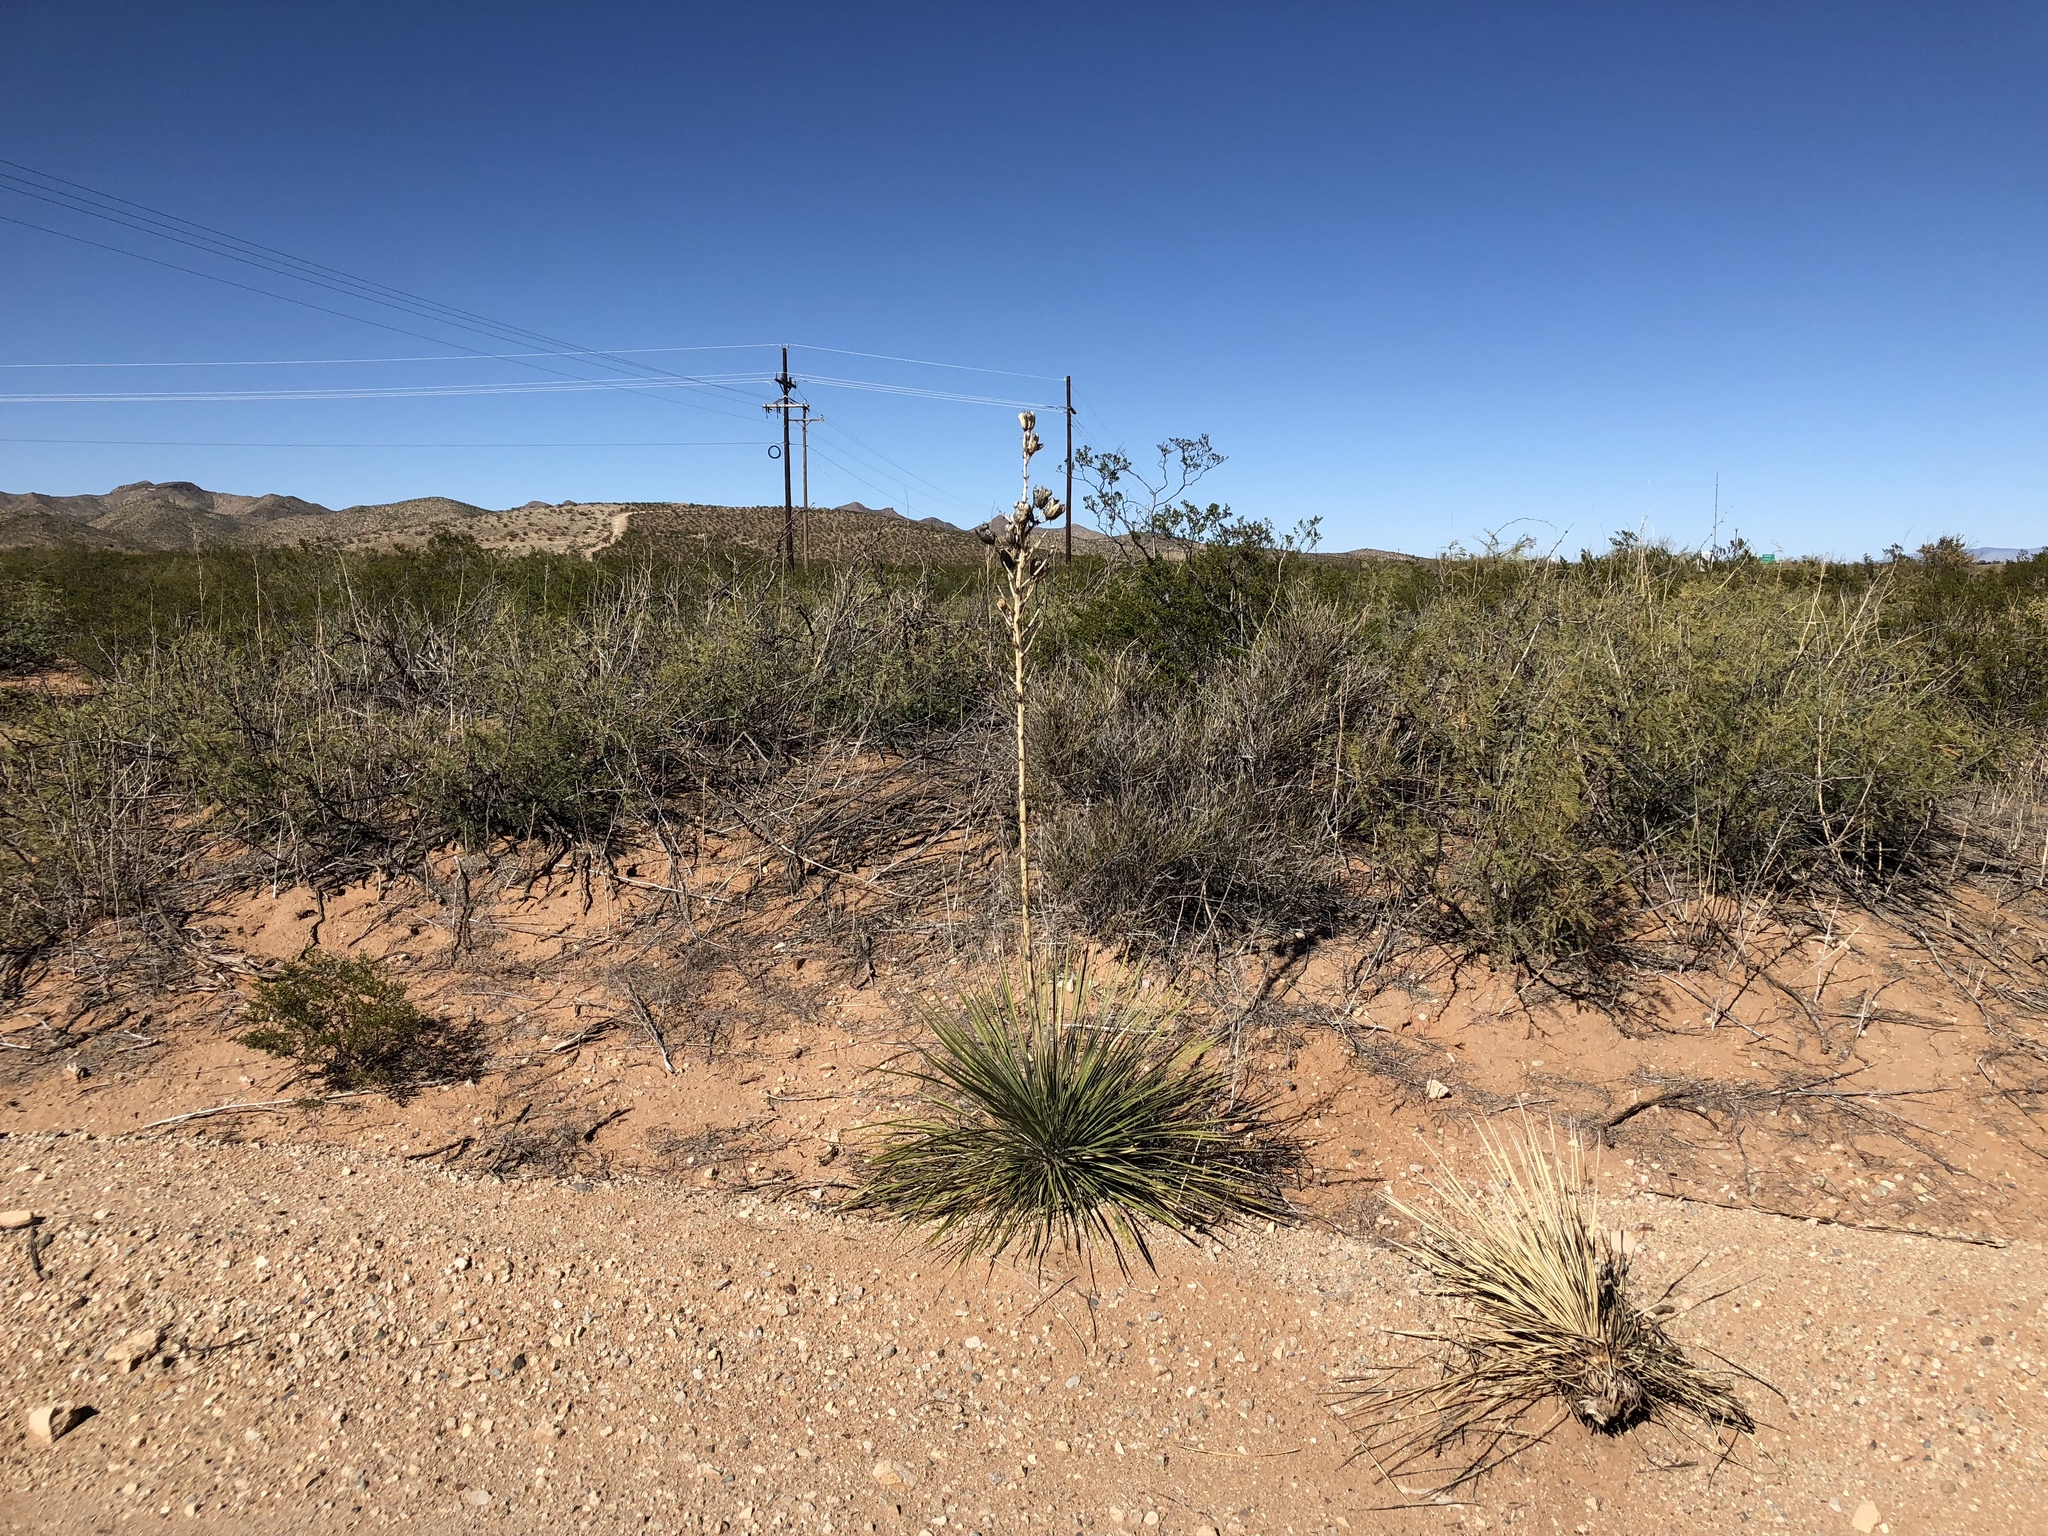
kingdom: Plantae
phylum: Tracheophyta
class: Liliopsida
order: Asparagales
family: Asparagaceae
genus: Yucca
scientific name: Yucca elata
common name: Palmella
